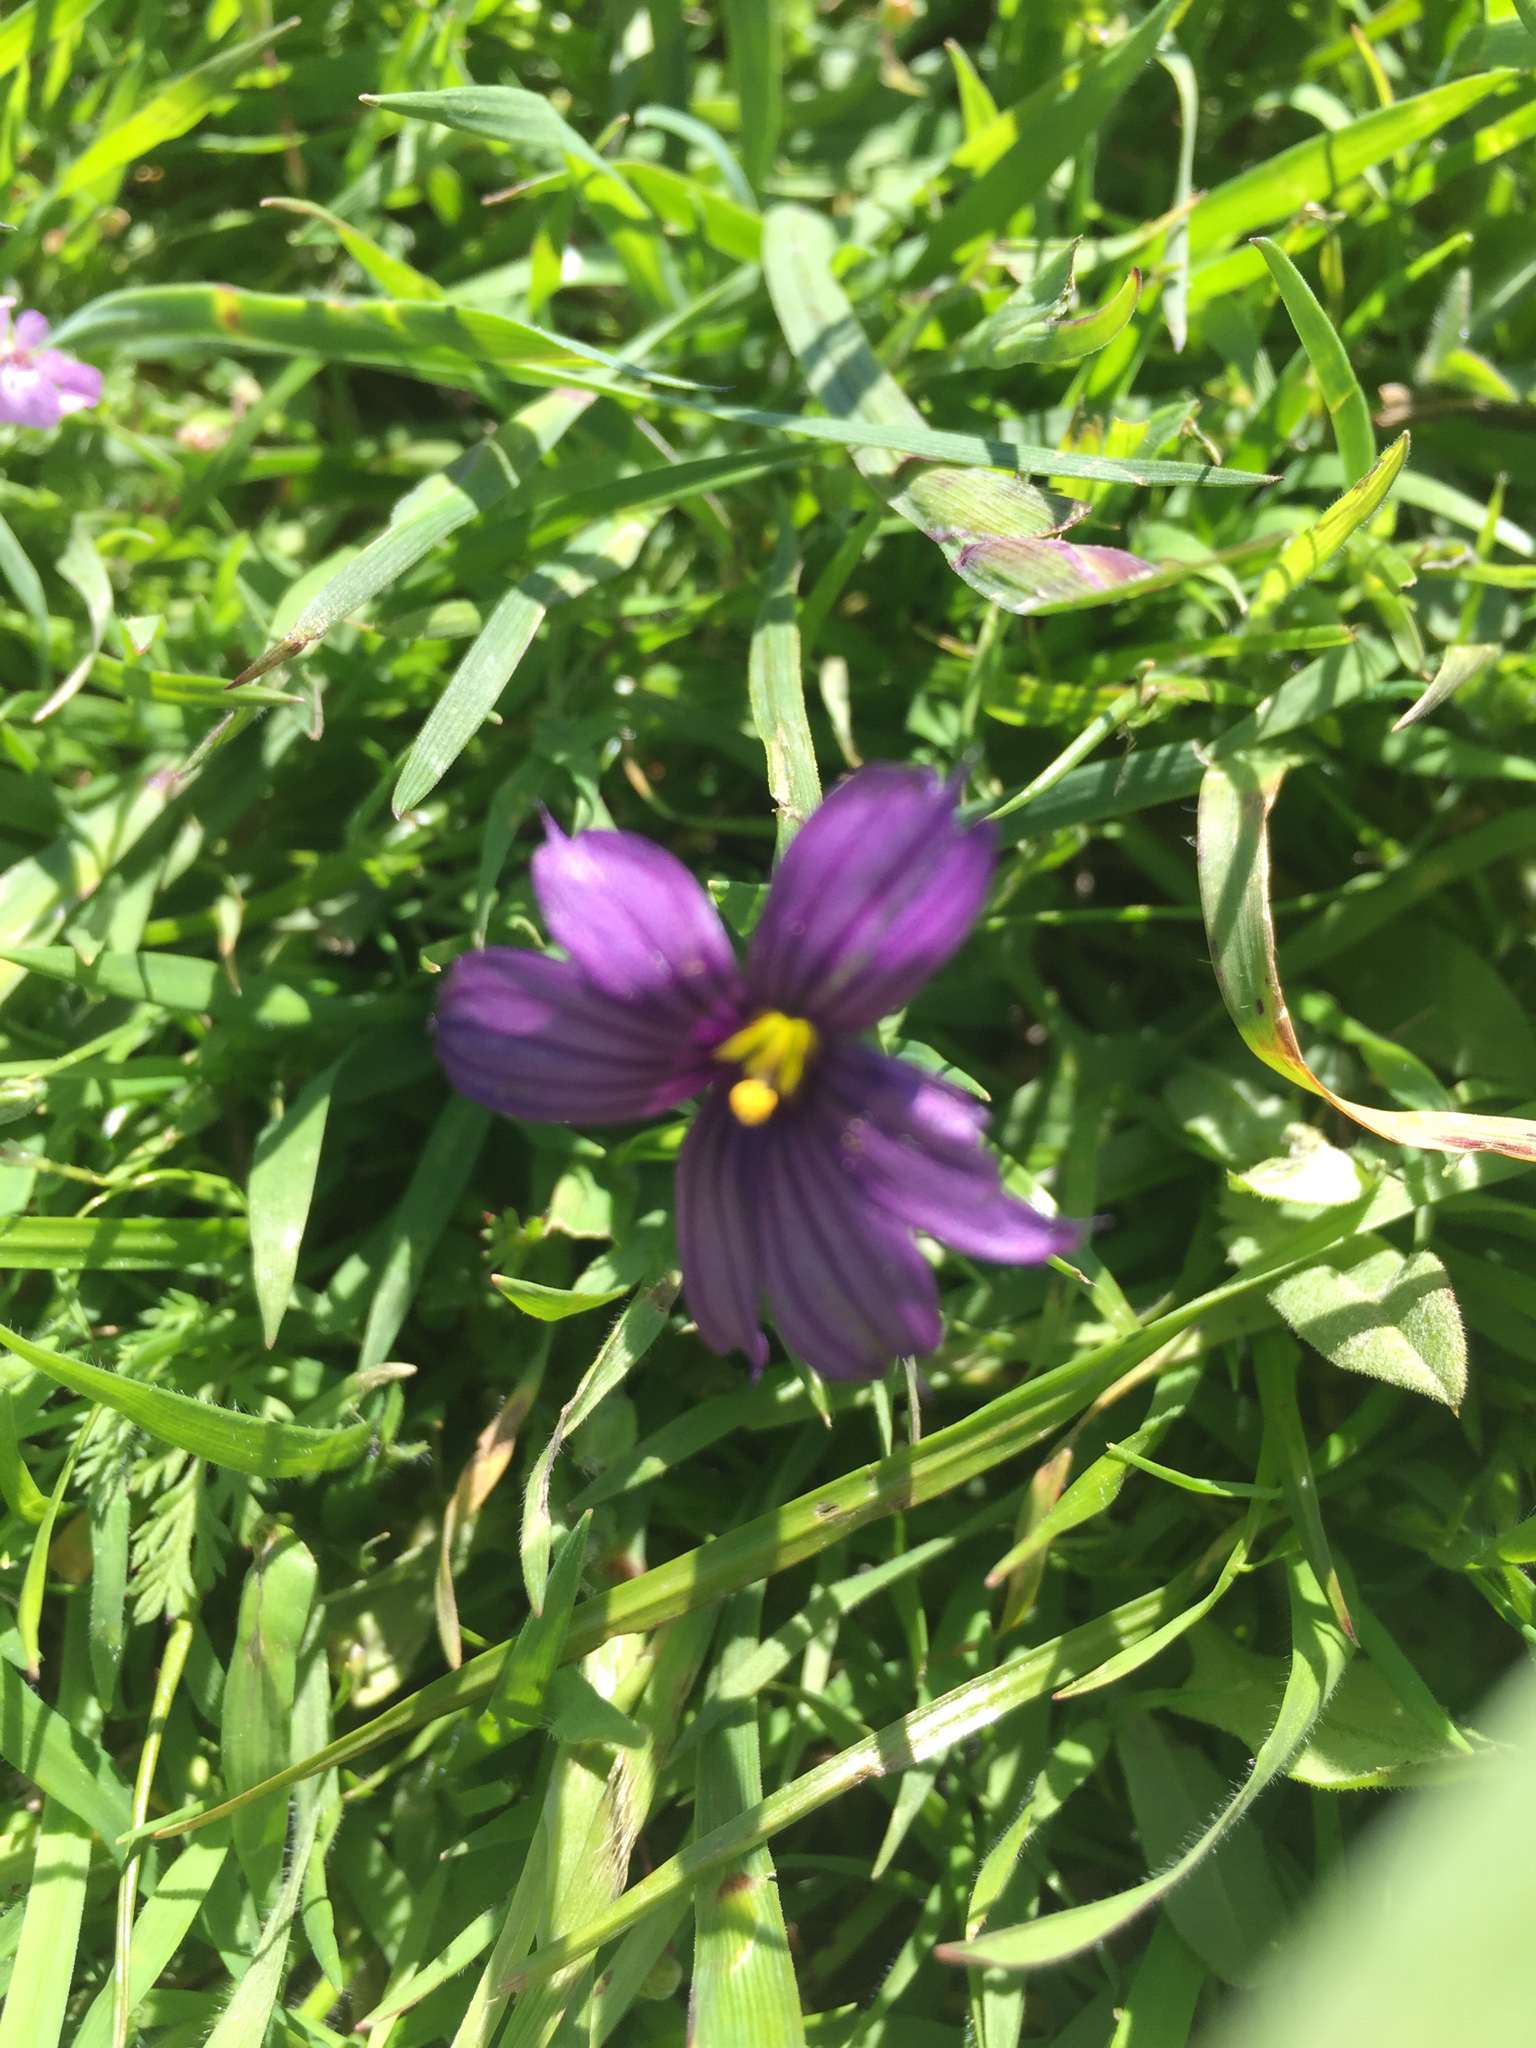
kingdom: Plantae
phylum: Tracheophyta
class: Liliopsida
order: Asparagales
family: Iridaceae
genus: Sisyrinchium
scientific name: Sisyrinchium bellum
